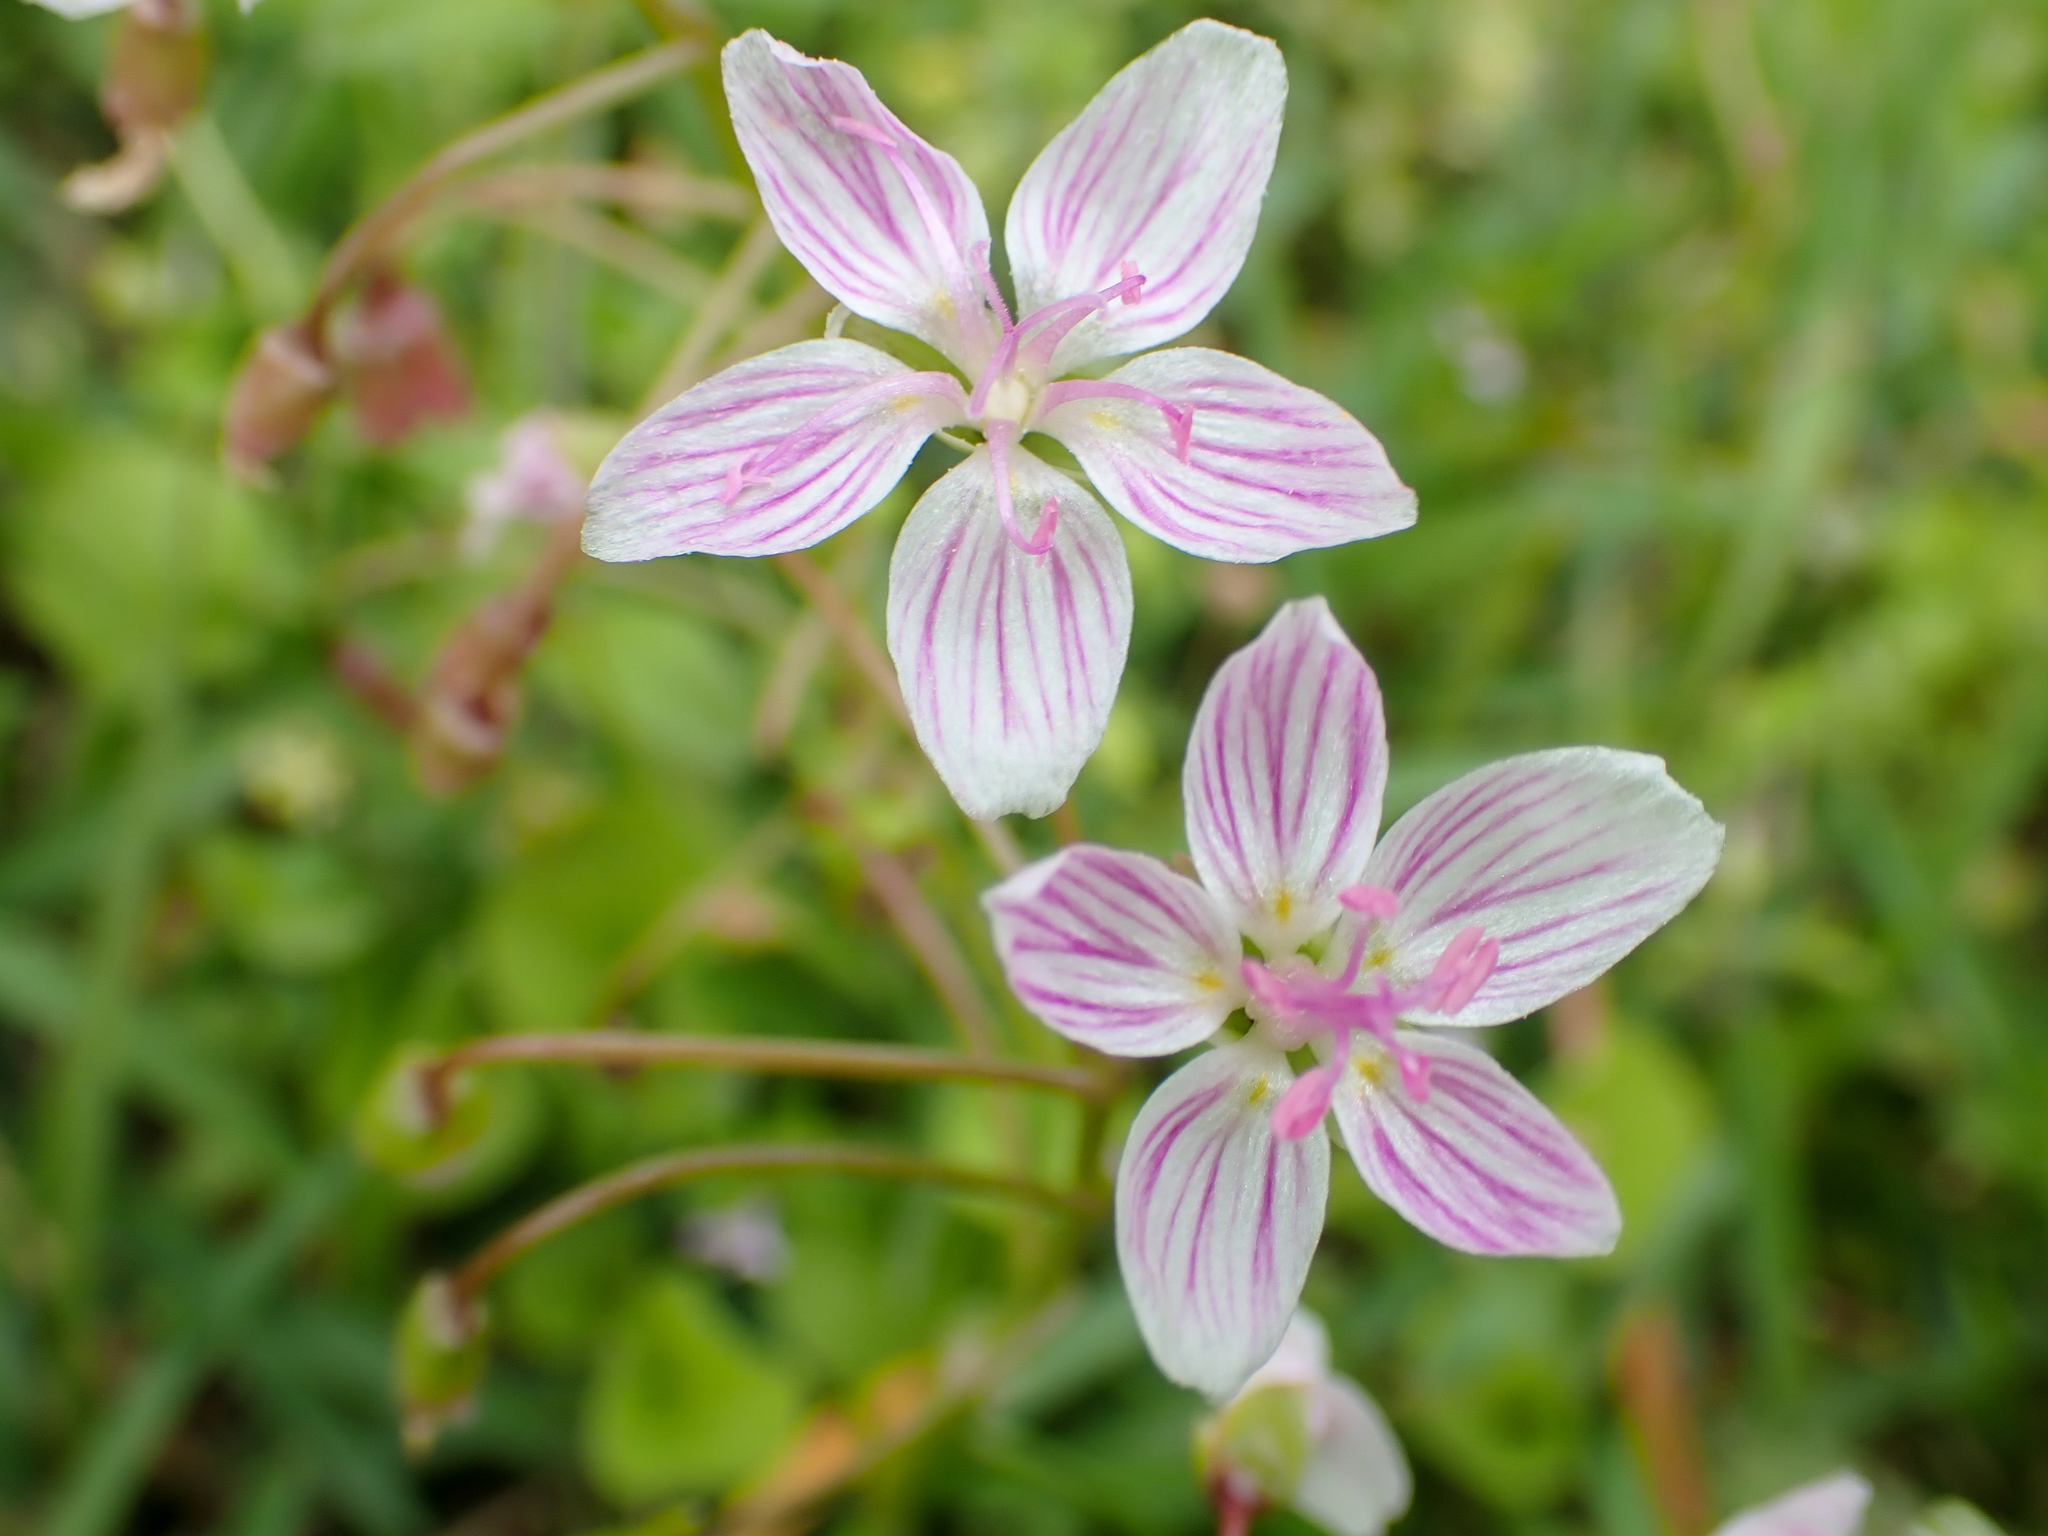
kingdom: Plantae
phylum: Tracheophyta
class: Magnoliopsida
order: Caryophyllales
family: Montiaceae
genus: Claytonia
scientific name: Claytonia virginica
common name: Virginia springbeauty
